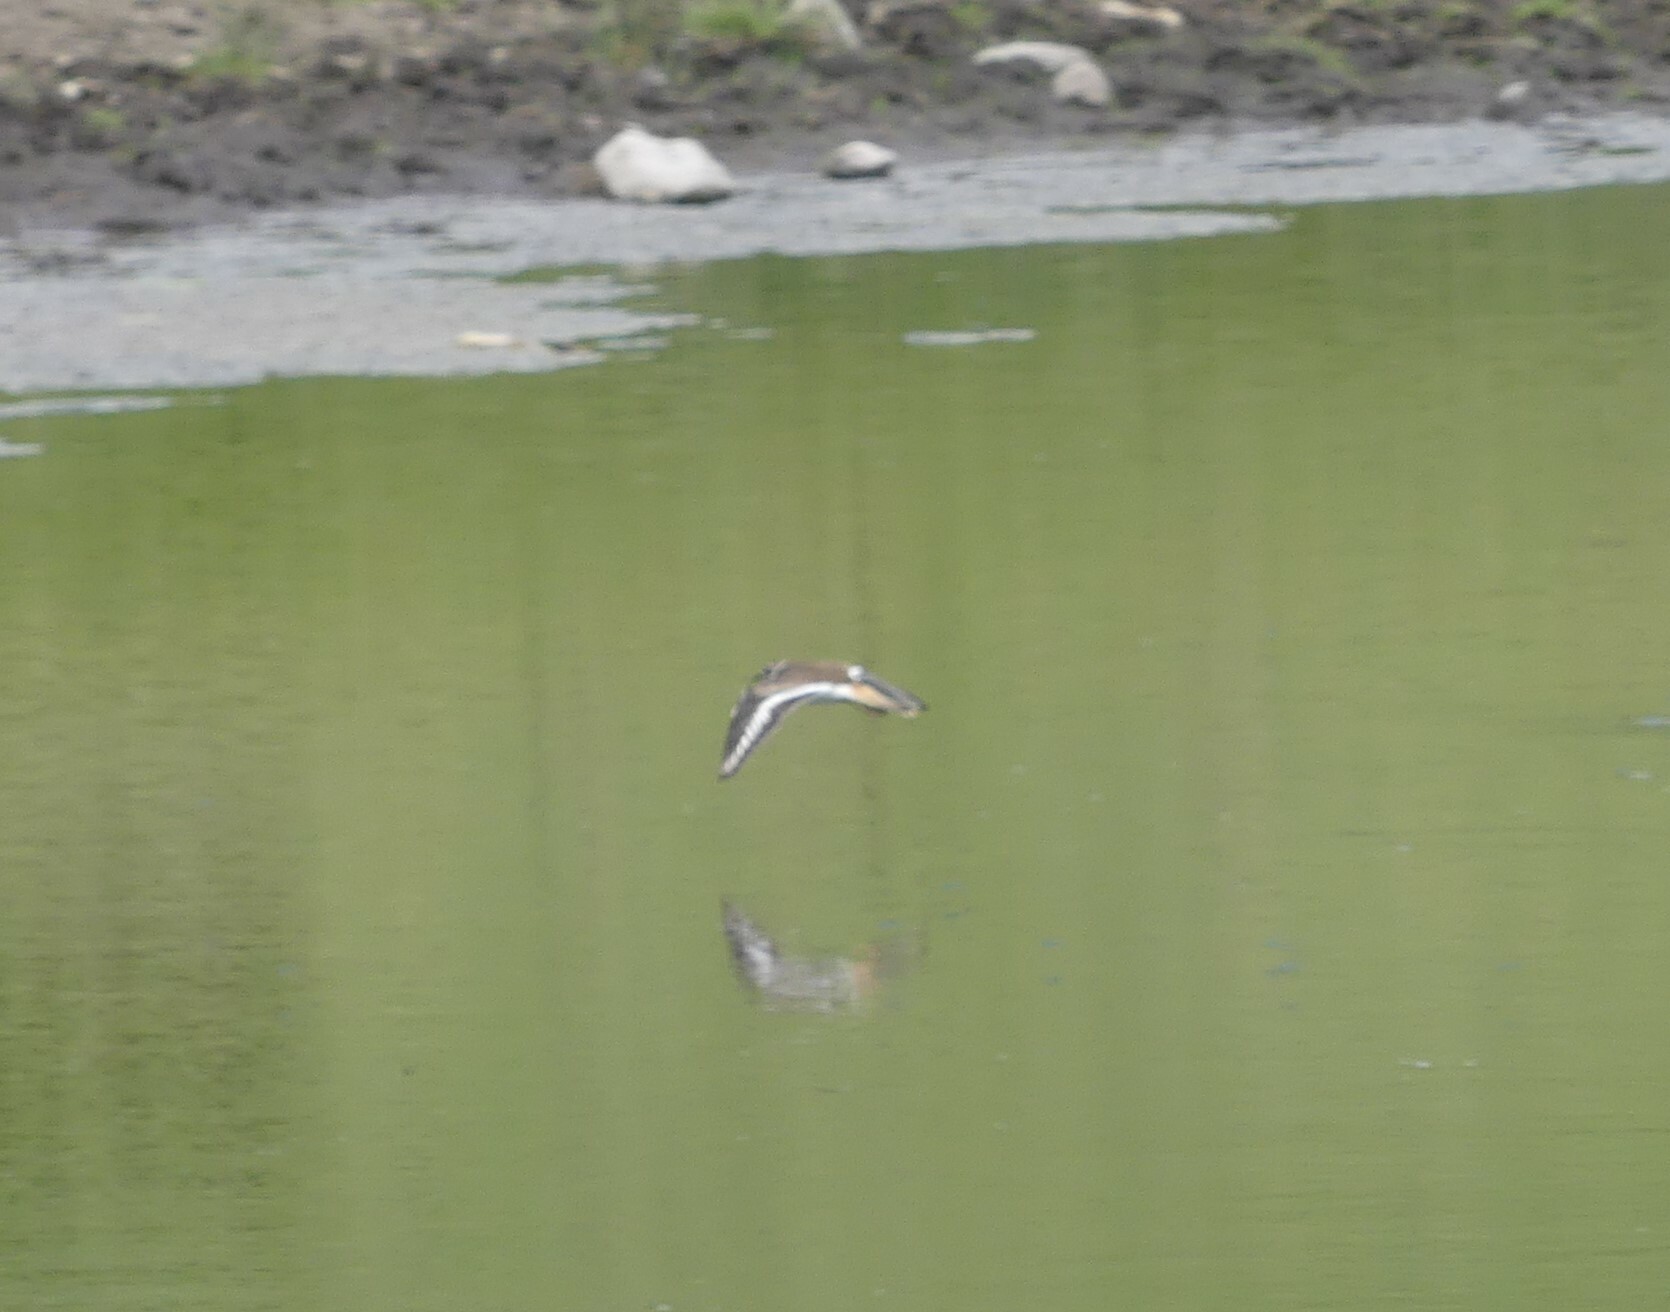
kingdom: Animalia
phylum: Chordata
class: Aves
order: Charadriiformes
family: Charadriidae
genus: Charadrius
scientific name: Charadrius vociferus
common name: Killdeer
